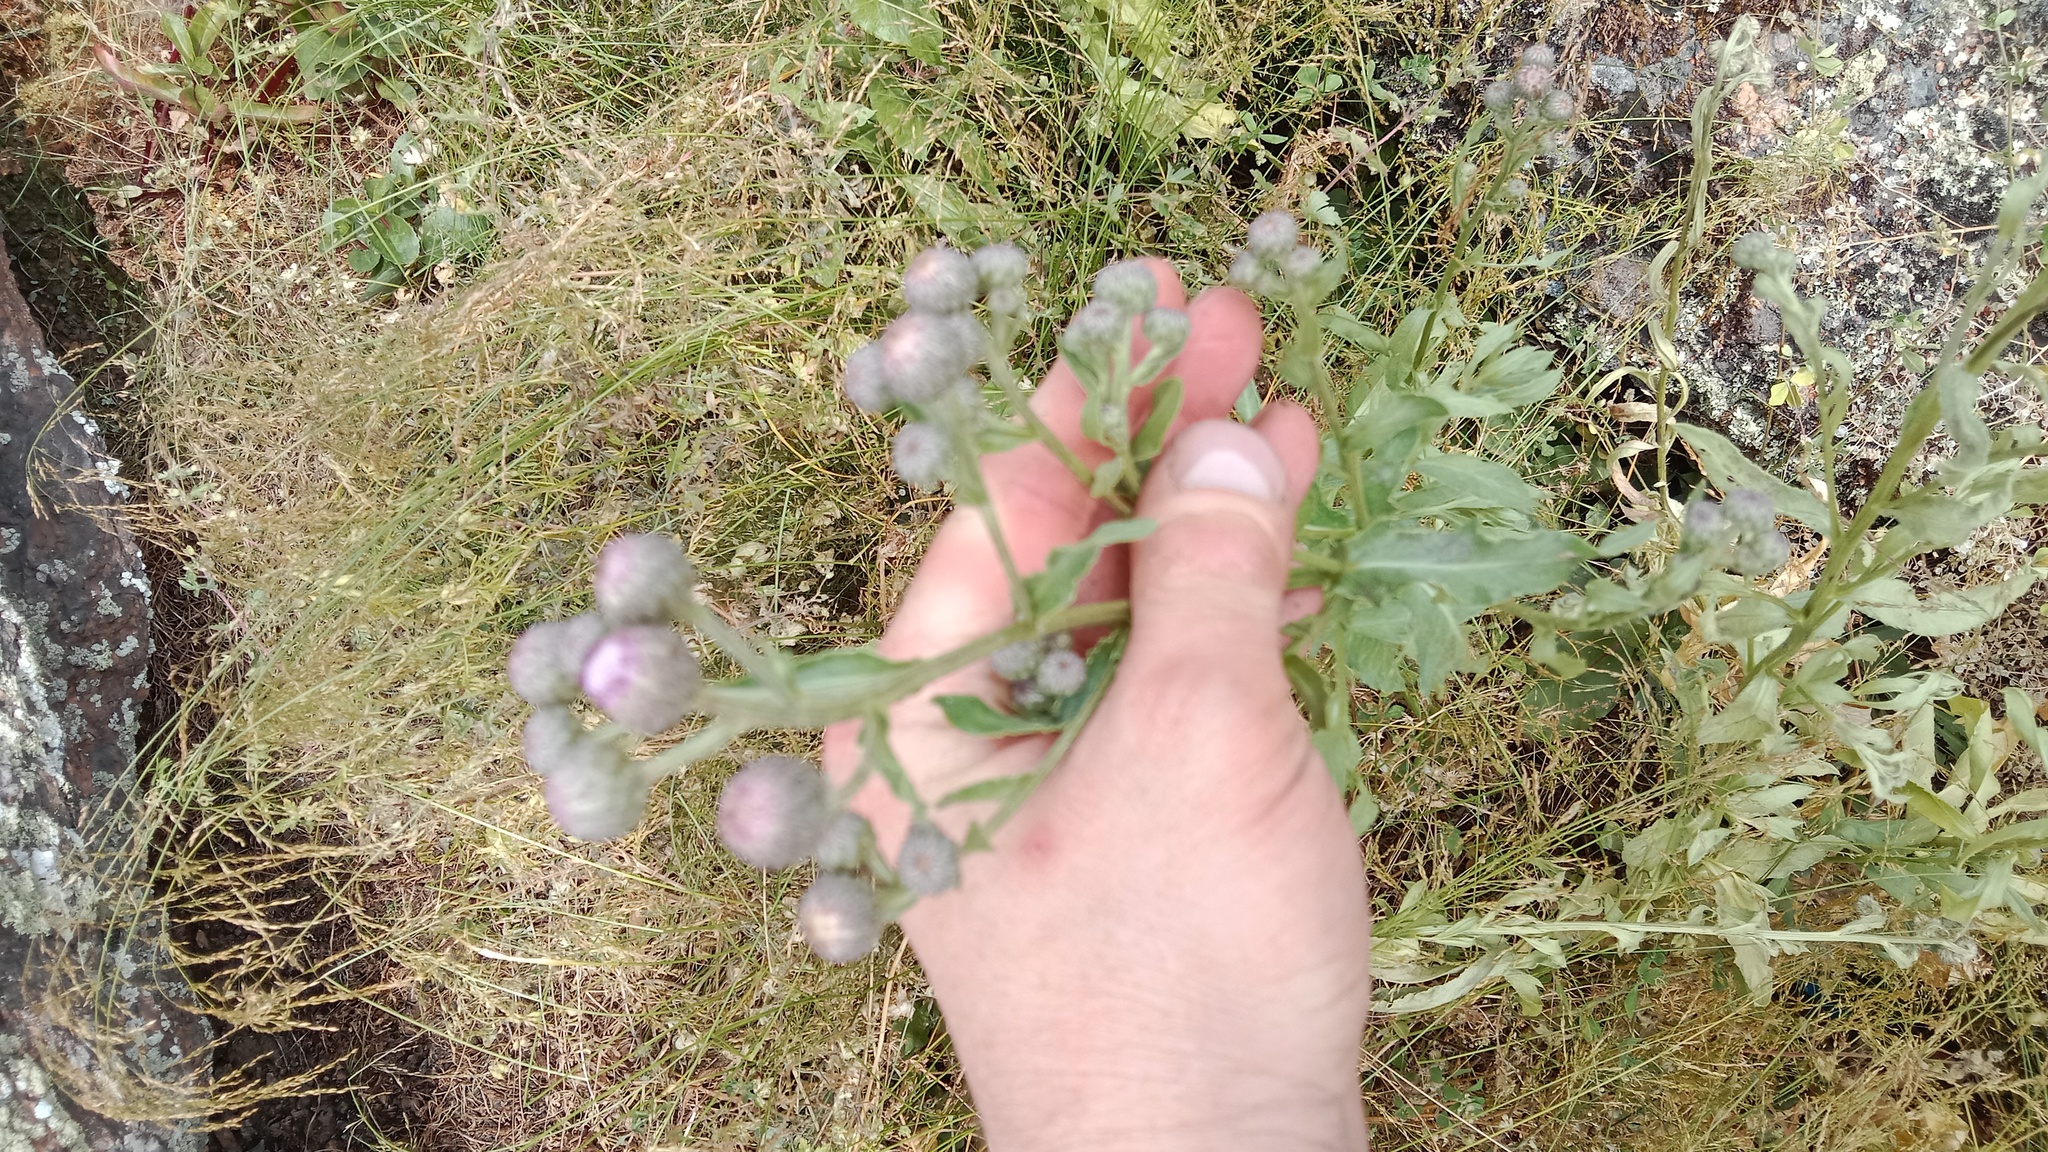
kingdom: Plantae
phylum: Tracheophyta
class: Magnoliopsida
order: Asterales
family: Asteraceae
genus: Cirsium
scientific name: Cirsium arvense
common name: Creeping thistle
